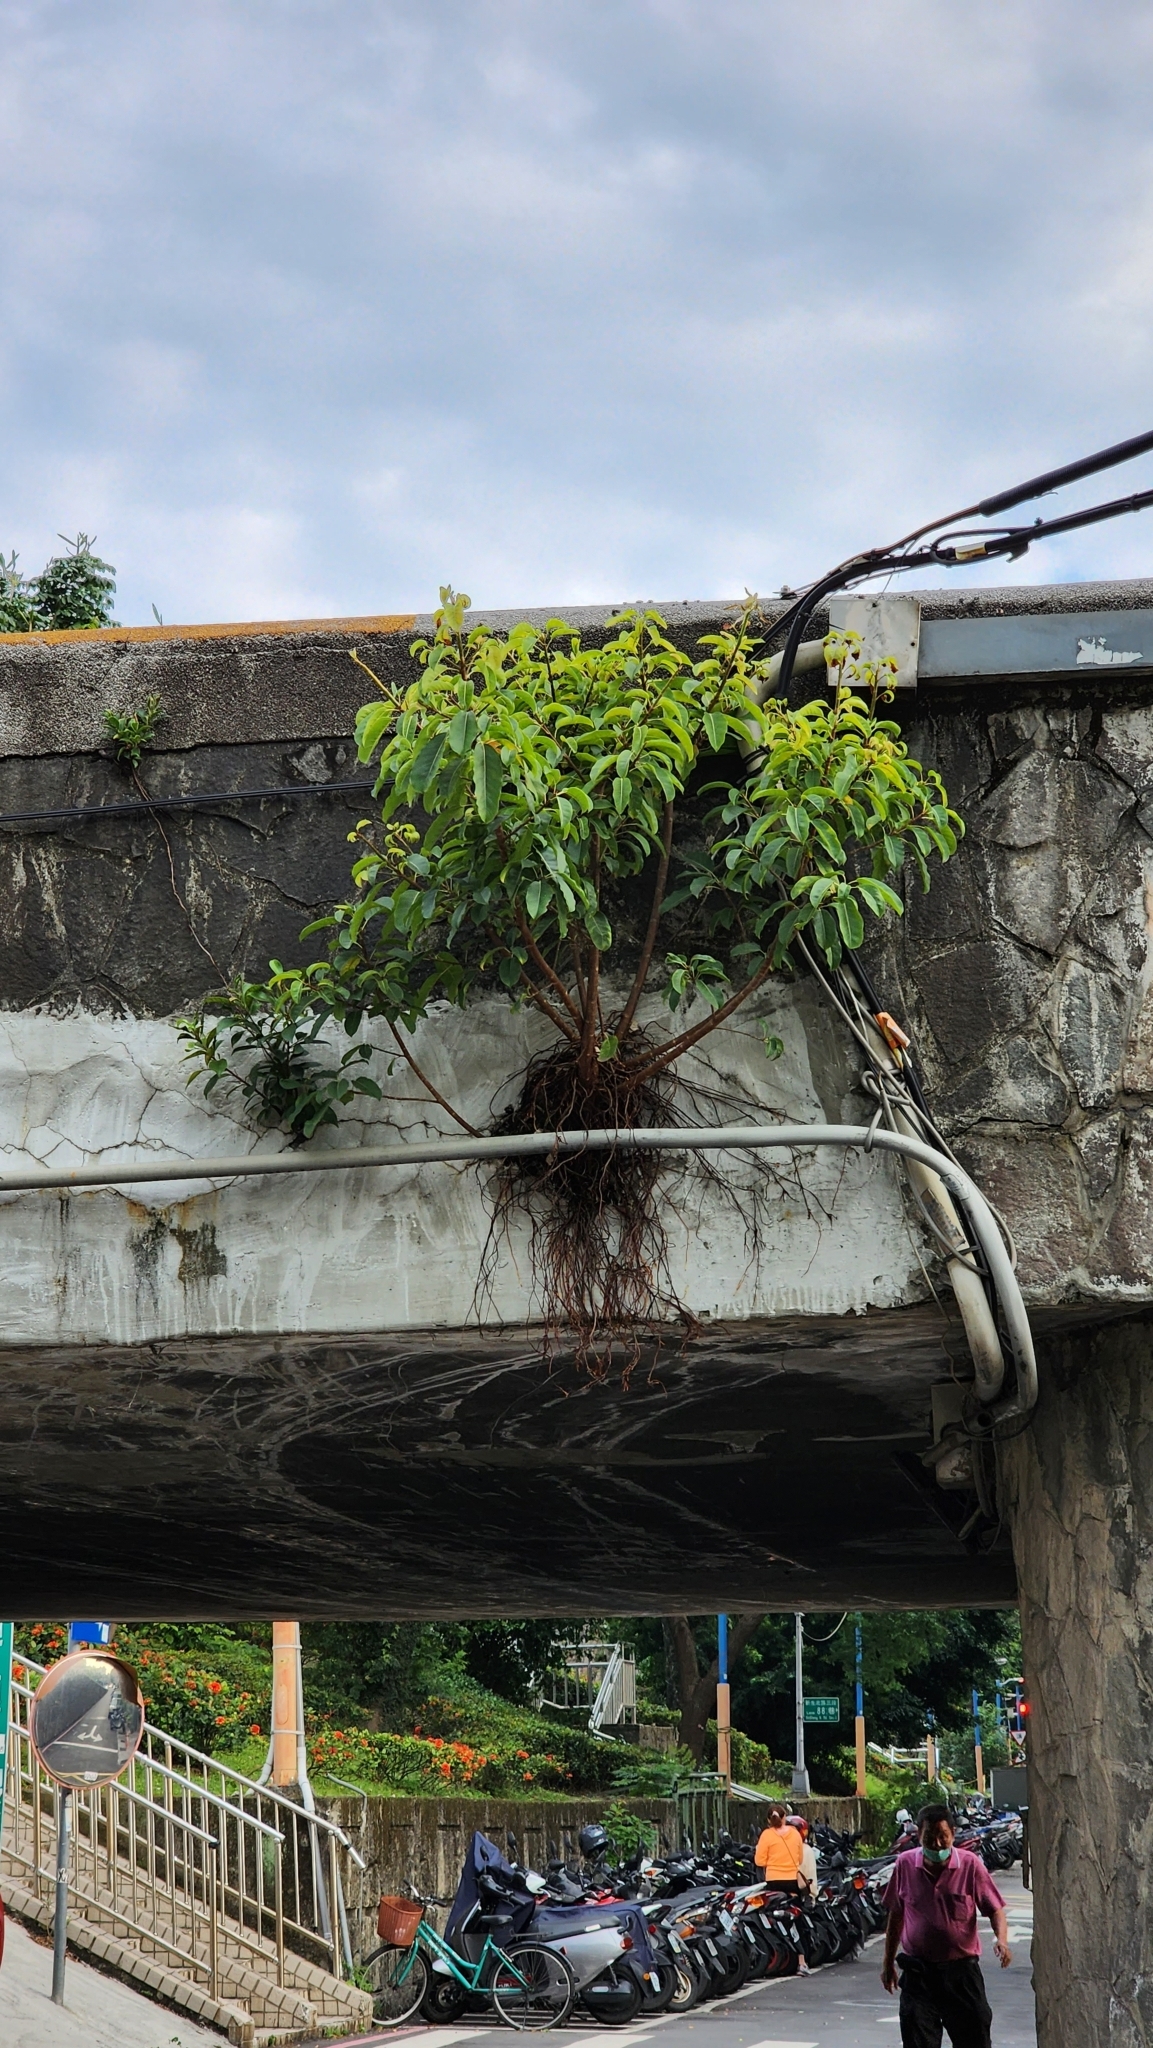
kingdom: Plantae
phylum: Tracheophyta
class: Magnoliopsida
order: Rosales
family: Moraceae
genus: Ficus
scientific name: Ficus subpisocarpa
